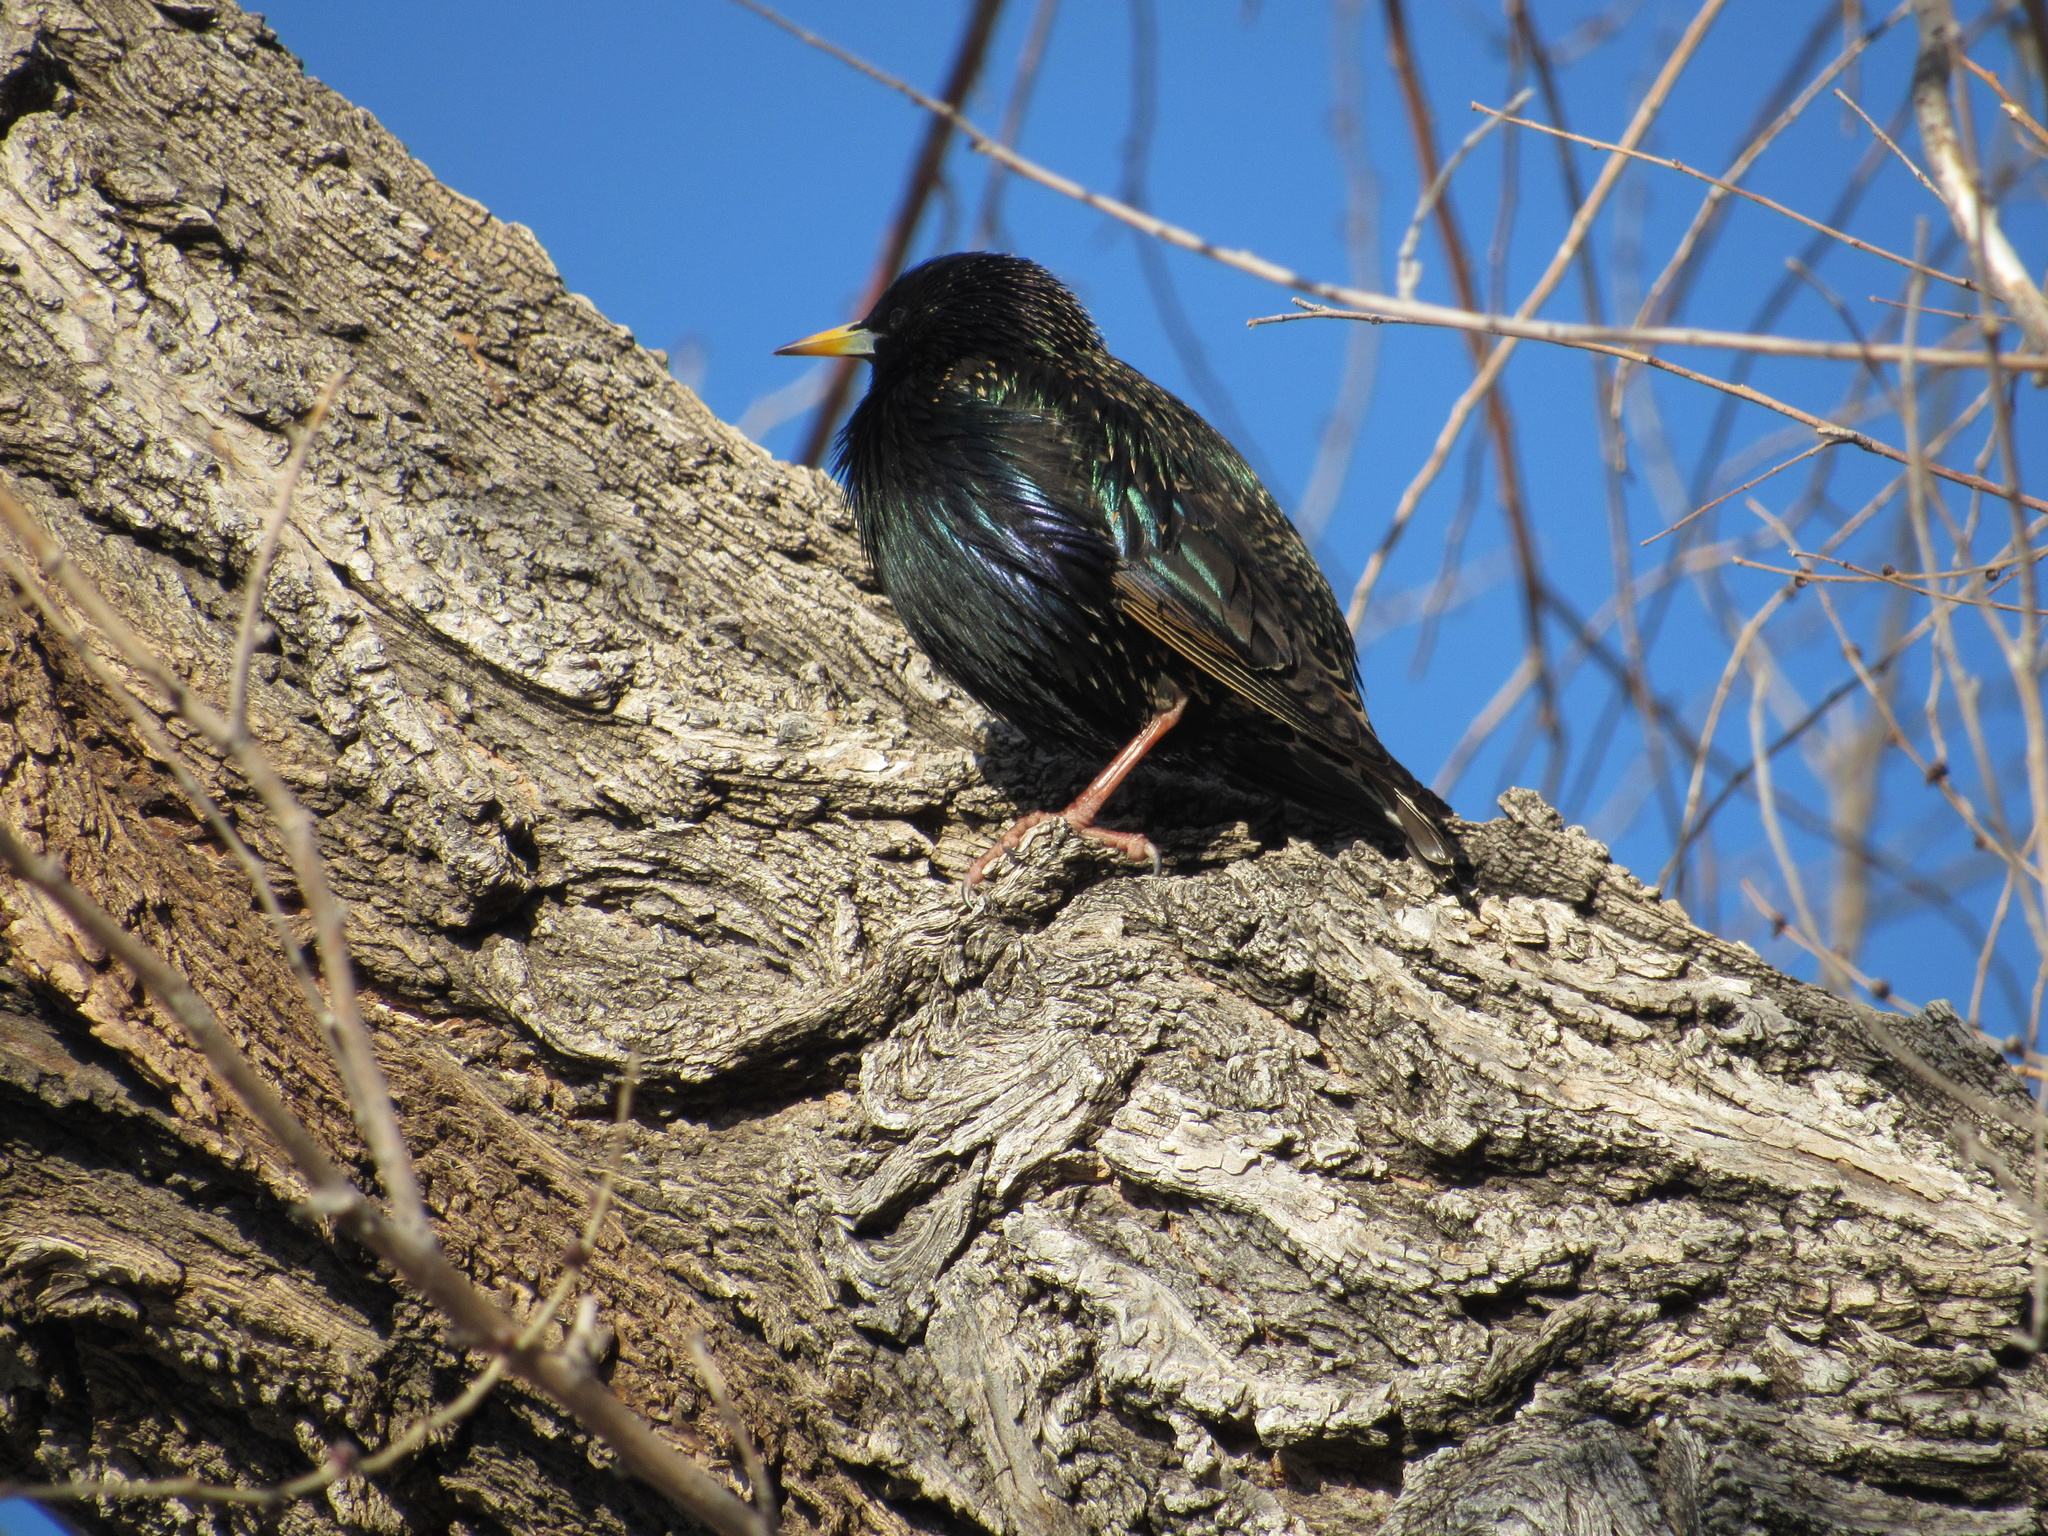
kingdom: Animalia
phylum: Chordata
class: Aves
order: Passeriformes
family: Sturnidae
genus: Sturnus
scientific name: Sturnus vulgaris
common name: Common starling
